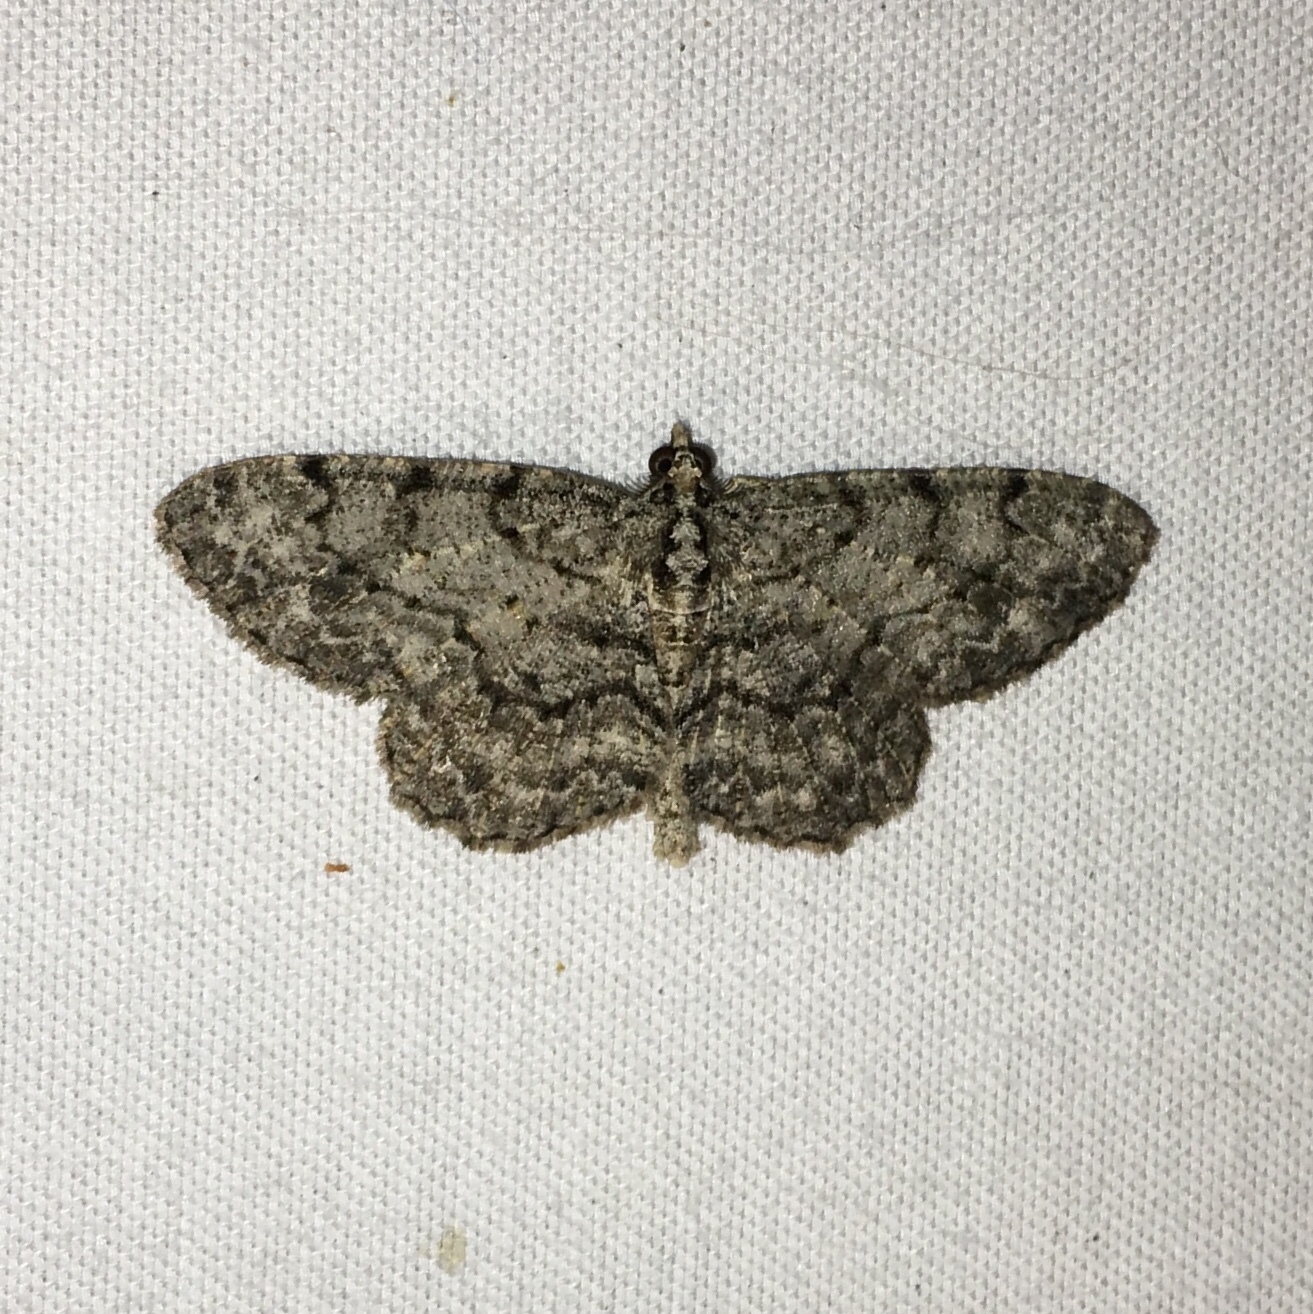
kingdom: Animalia
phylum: Arthropoda
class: Insecta
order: Lepidoptera
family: Geometridae
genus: Protoboarmia
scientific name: Protoboarmia porcelaria
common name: Porcelain gray
